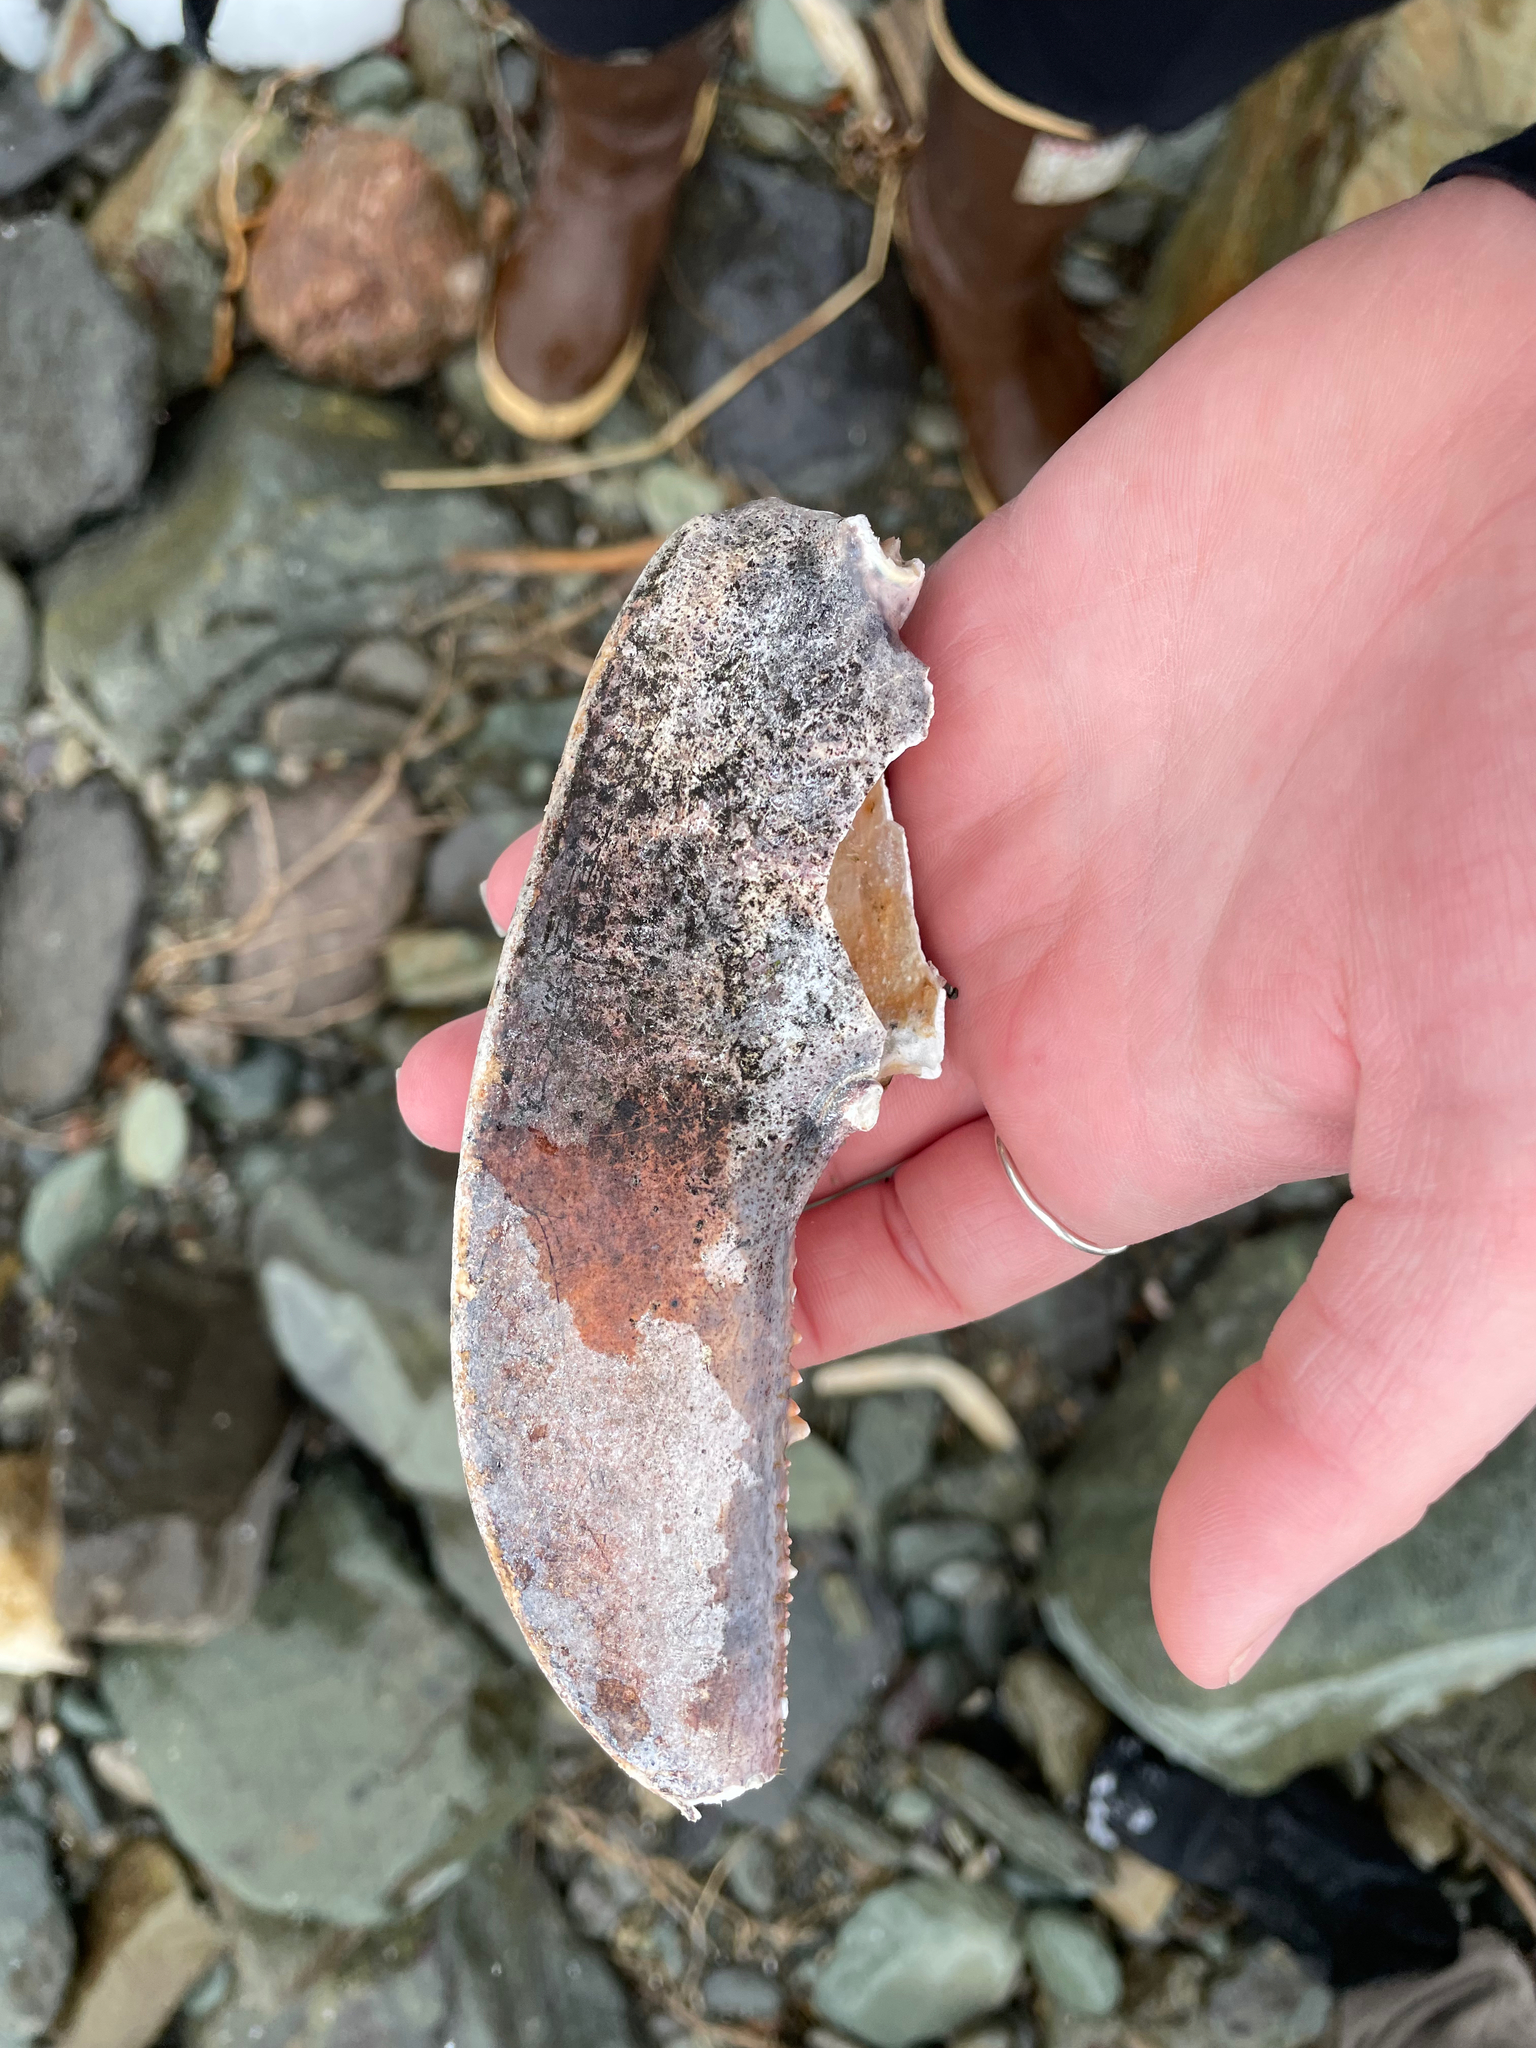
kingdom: Animalia
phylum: Arthropoda
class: Malacostraca
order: Decapoda
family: Nephropidae
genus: Homarus
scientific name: Homarus americanus
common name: American lobster
